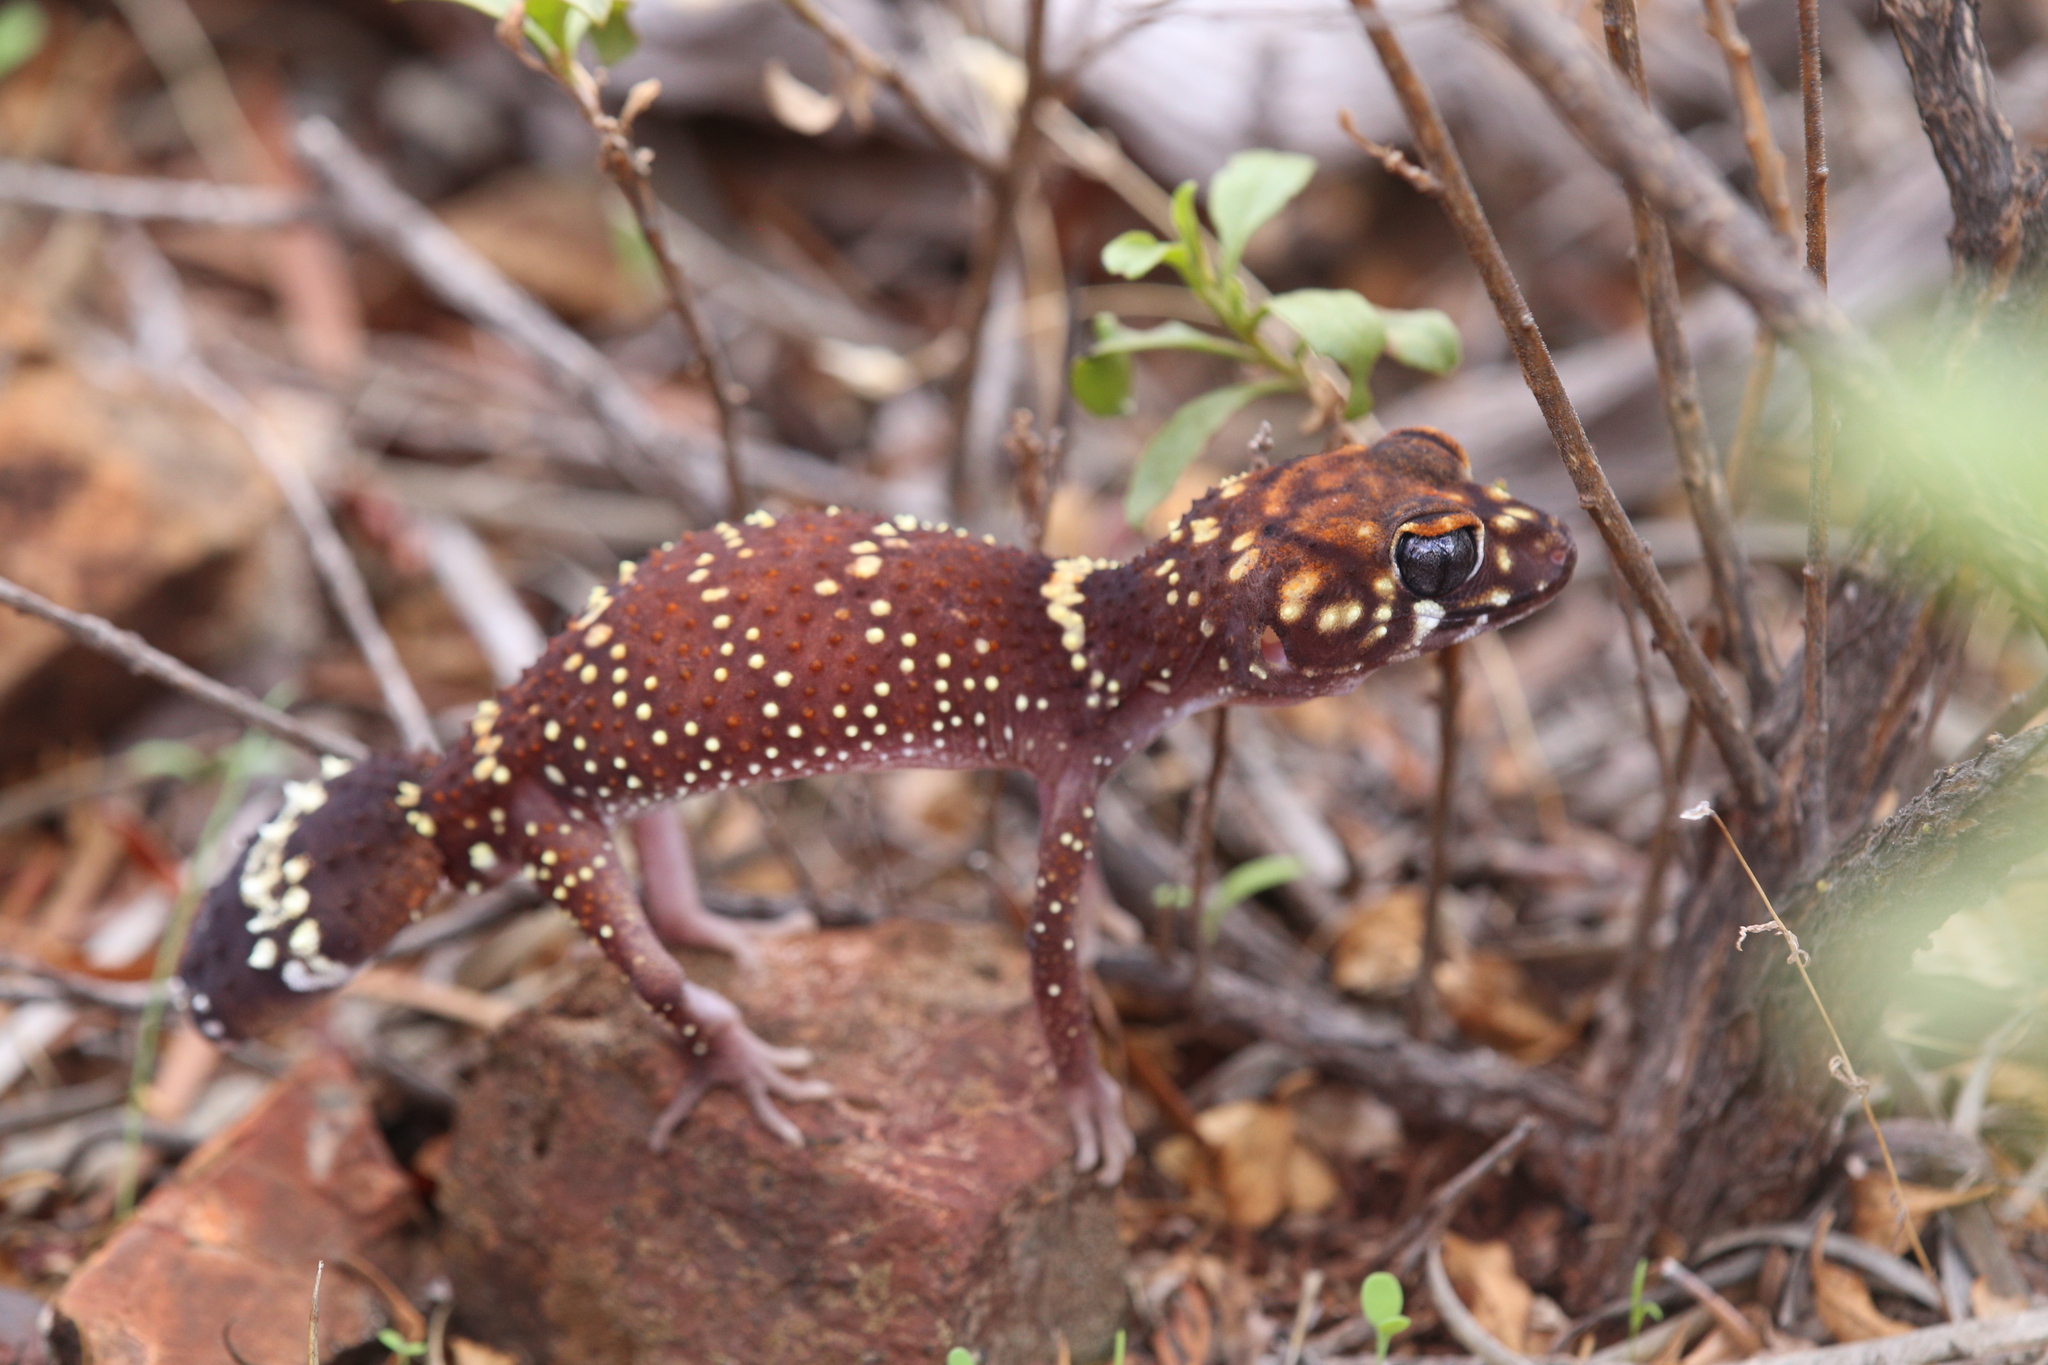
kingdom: Animalia
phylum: Chordata
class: Squamata
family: Carphodactylidae
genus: Underwoodisaurus
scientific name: Underwoodisaurus milii
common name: Barking gecko
